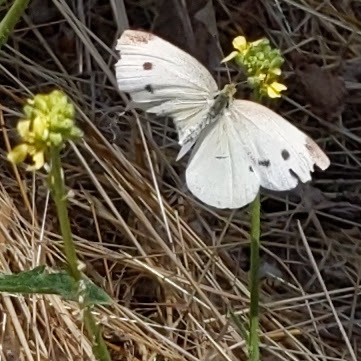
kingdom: Animalia
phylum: Arthropoda
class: Insecta
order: Lepidoptera
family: Pieridae
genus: Pieris
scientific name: Pieris rapae
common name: Small white
